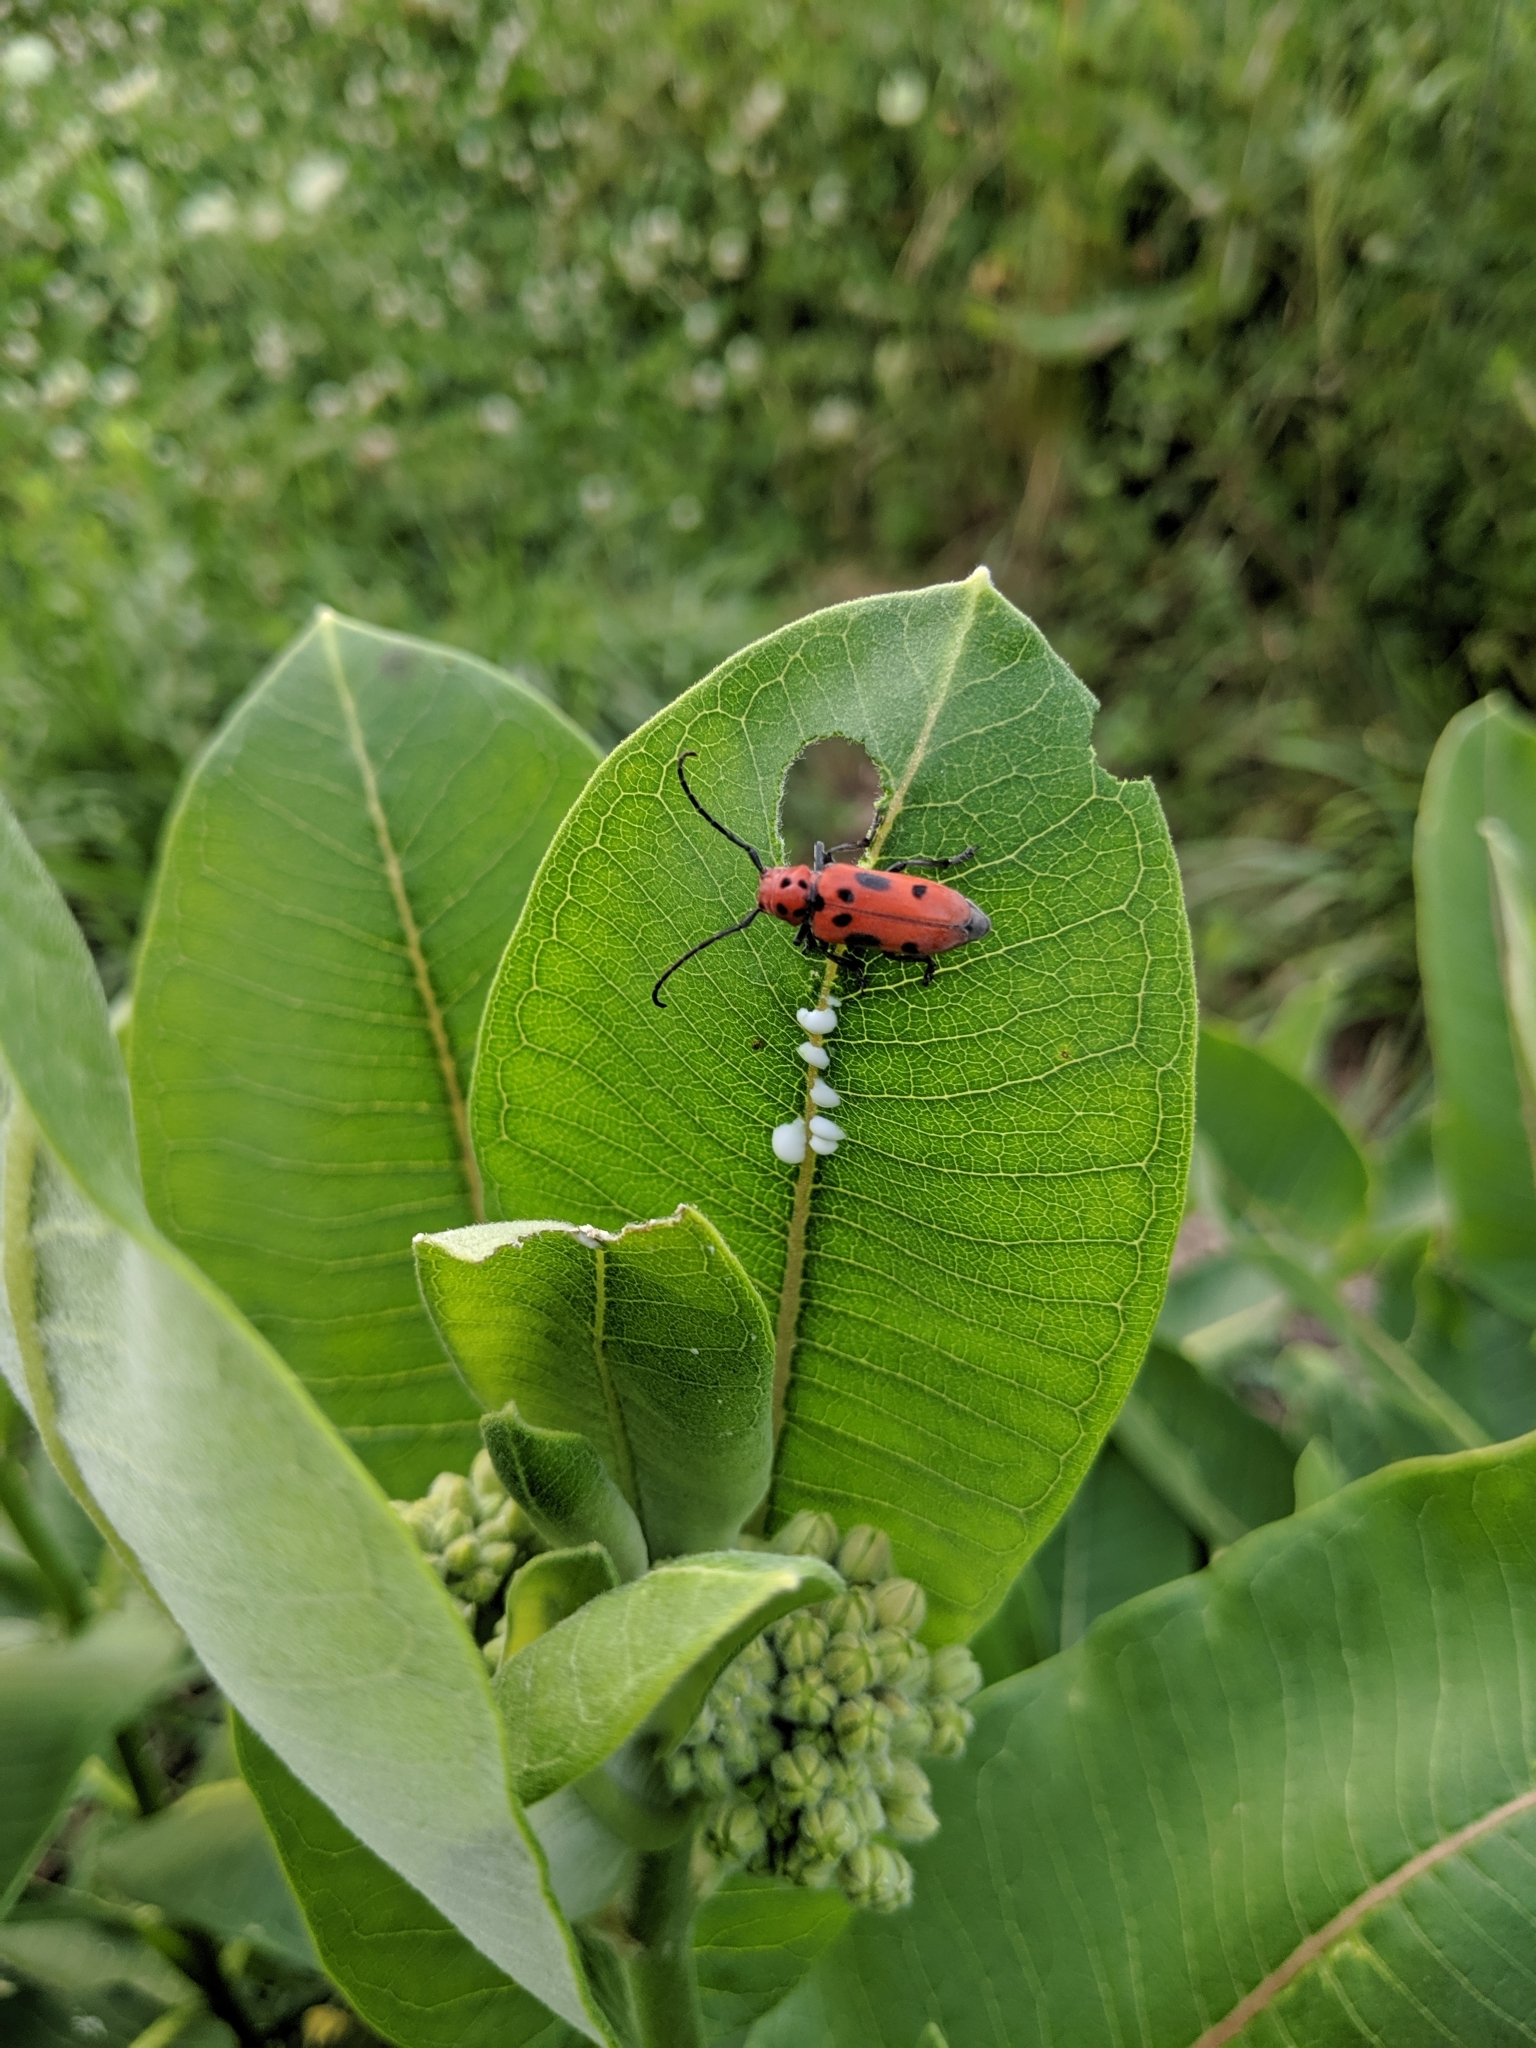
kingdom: Animalia
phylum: Arthropoda
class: Insecta
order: Coleoptera
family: Cerambycidae
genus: Tetraopes
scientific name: Tetraopes tetrophthalmus
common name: Red milkweed beetle
